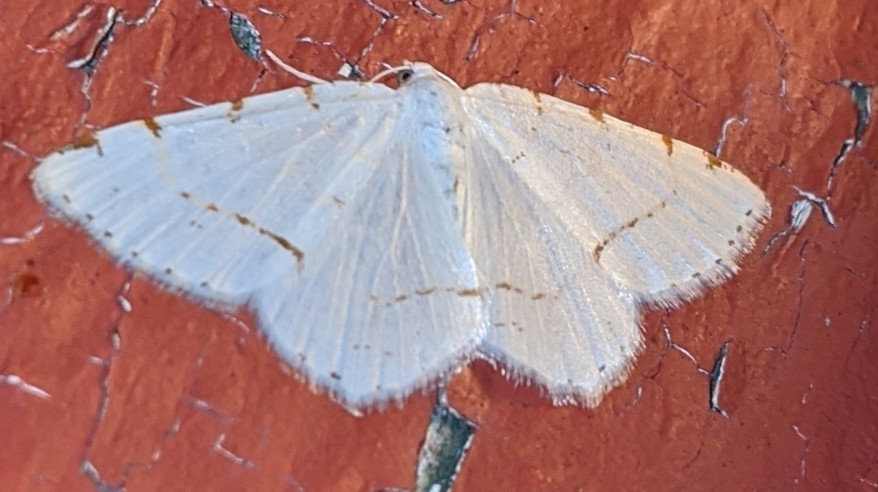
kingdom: Animalia
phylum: Arthropoda
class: Insecta
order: Lepidoptera
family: Geometridae
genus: Macaria
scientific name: Macaria pustularia
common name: Lesser maple spanworm moth
